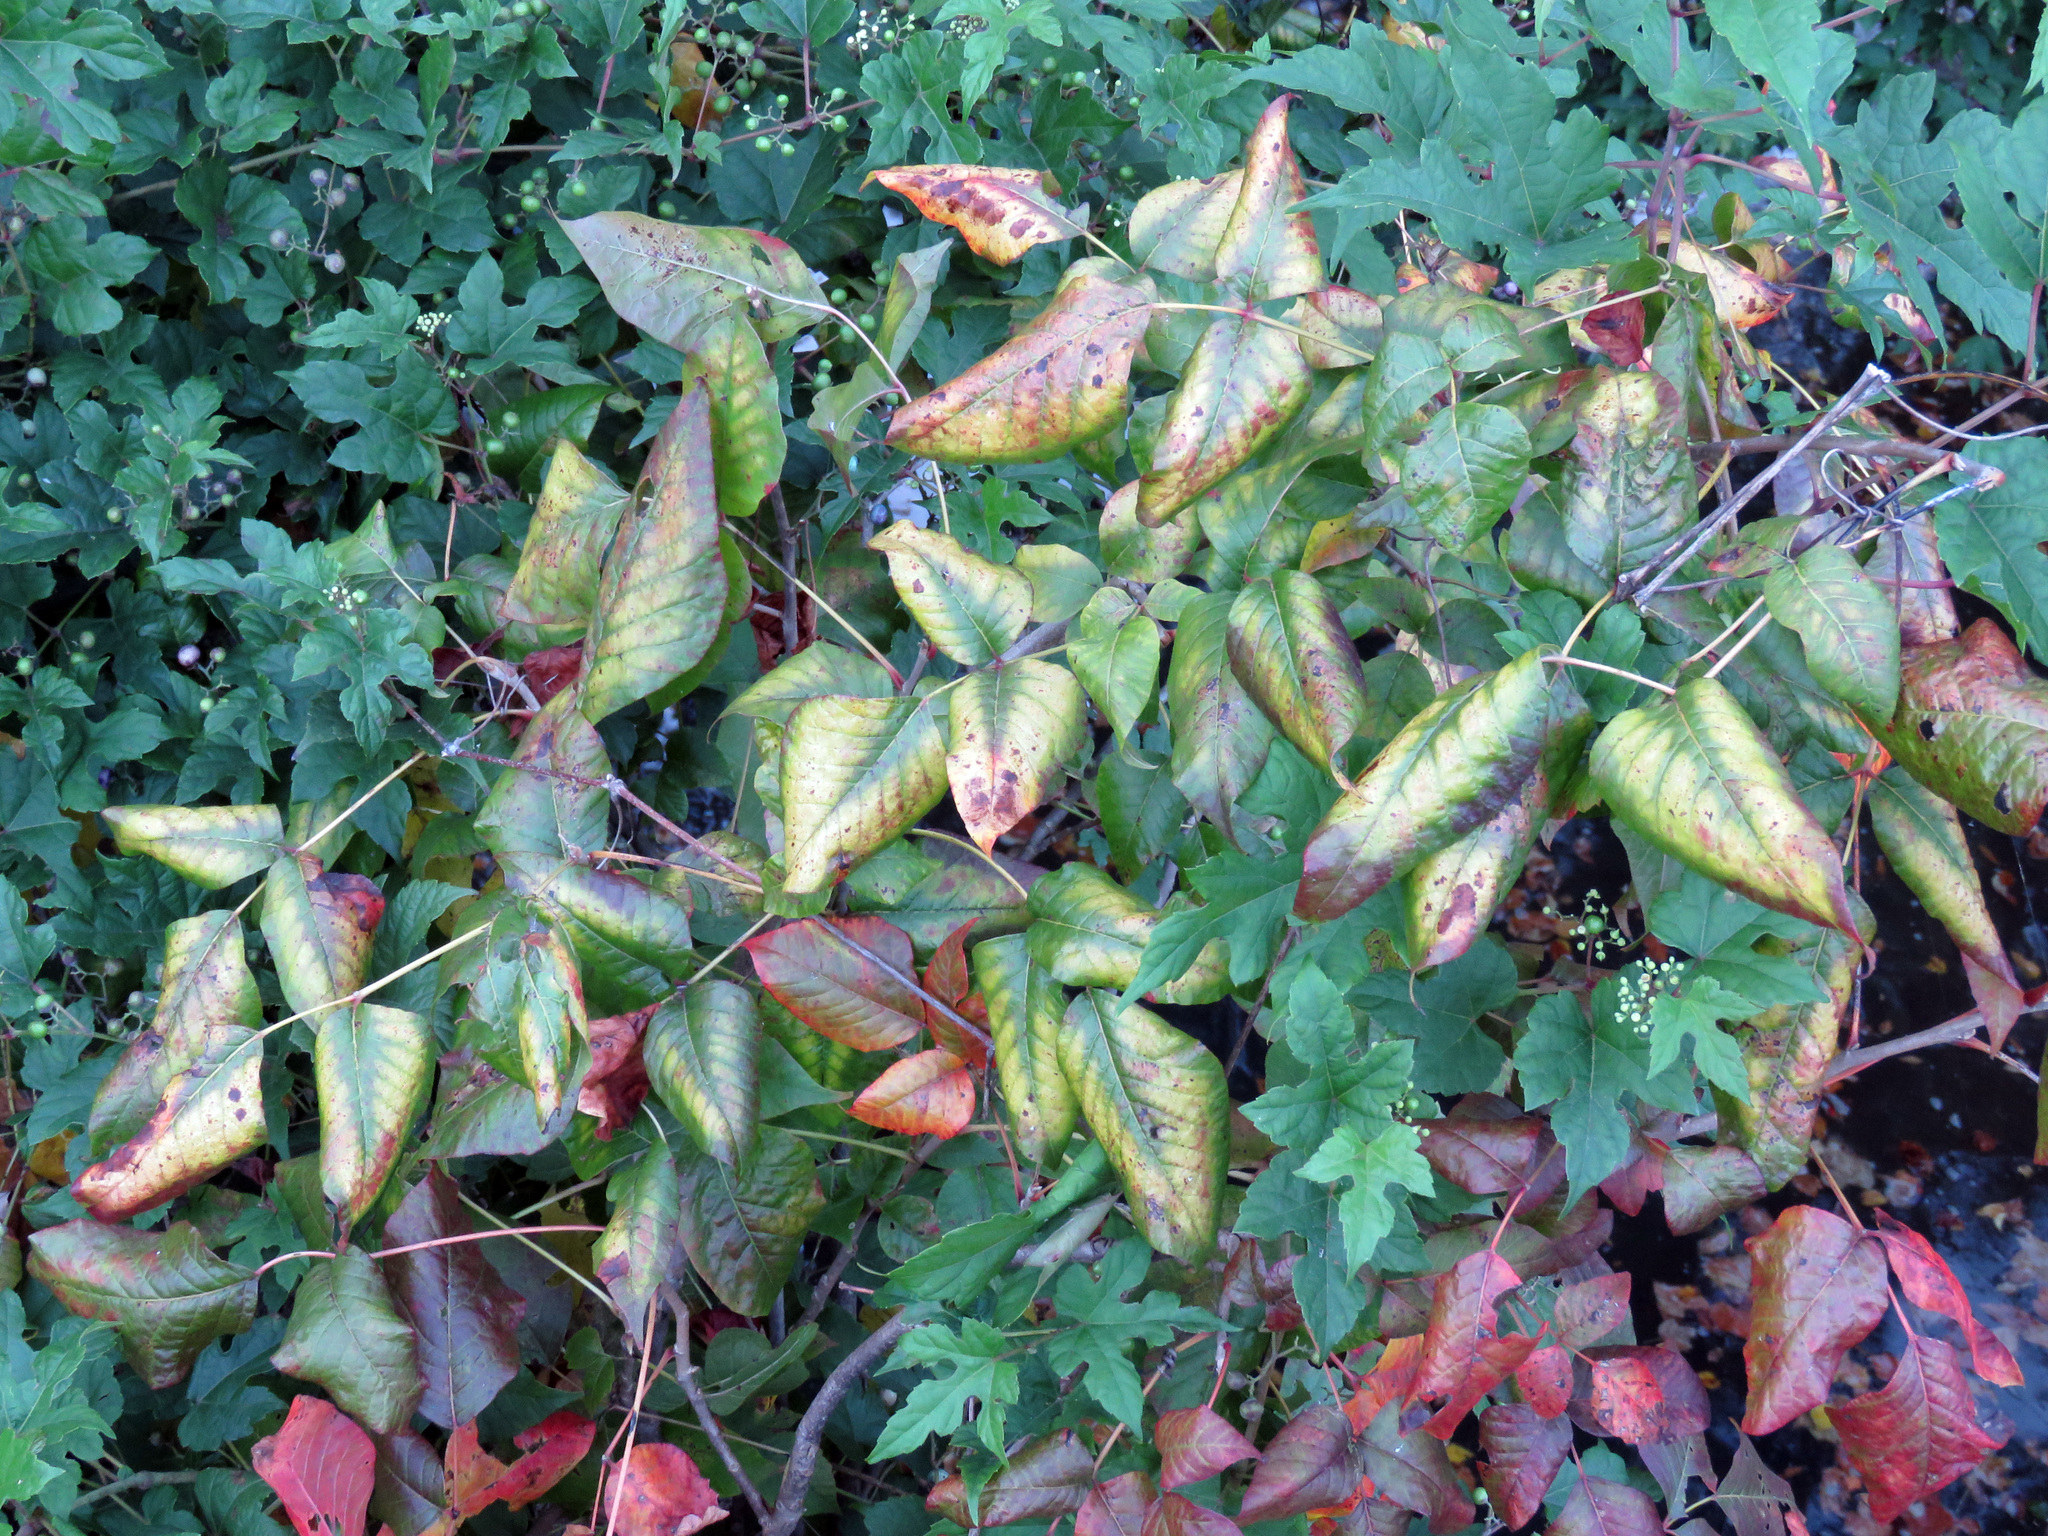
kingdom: Plantae
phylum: Tracheophyta
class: Magnoliopsida
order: Sapindales
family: Anacardiaceae
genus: Toxicodendron
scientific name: Toxicodendron radicans
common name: Poison ivy
